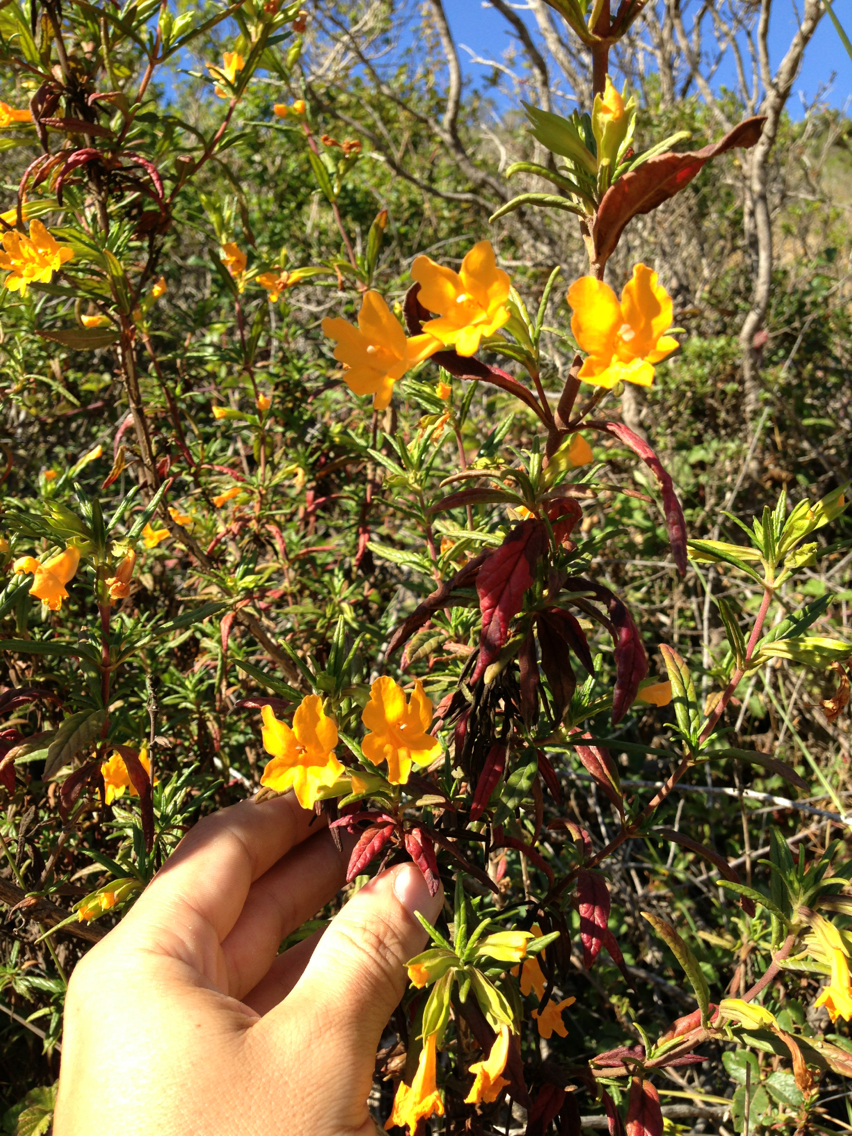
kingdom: Plantae
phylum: Tracheophyta
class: Magnoliopsida
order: Lamiales
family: Phrymaceae
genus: Diplacus
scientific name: Diplacus aurantiacus
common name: Bush monkey-flower
